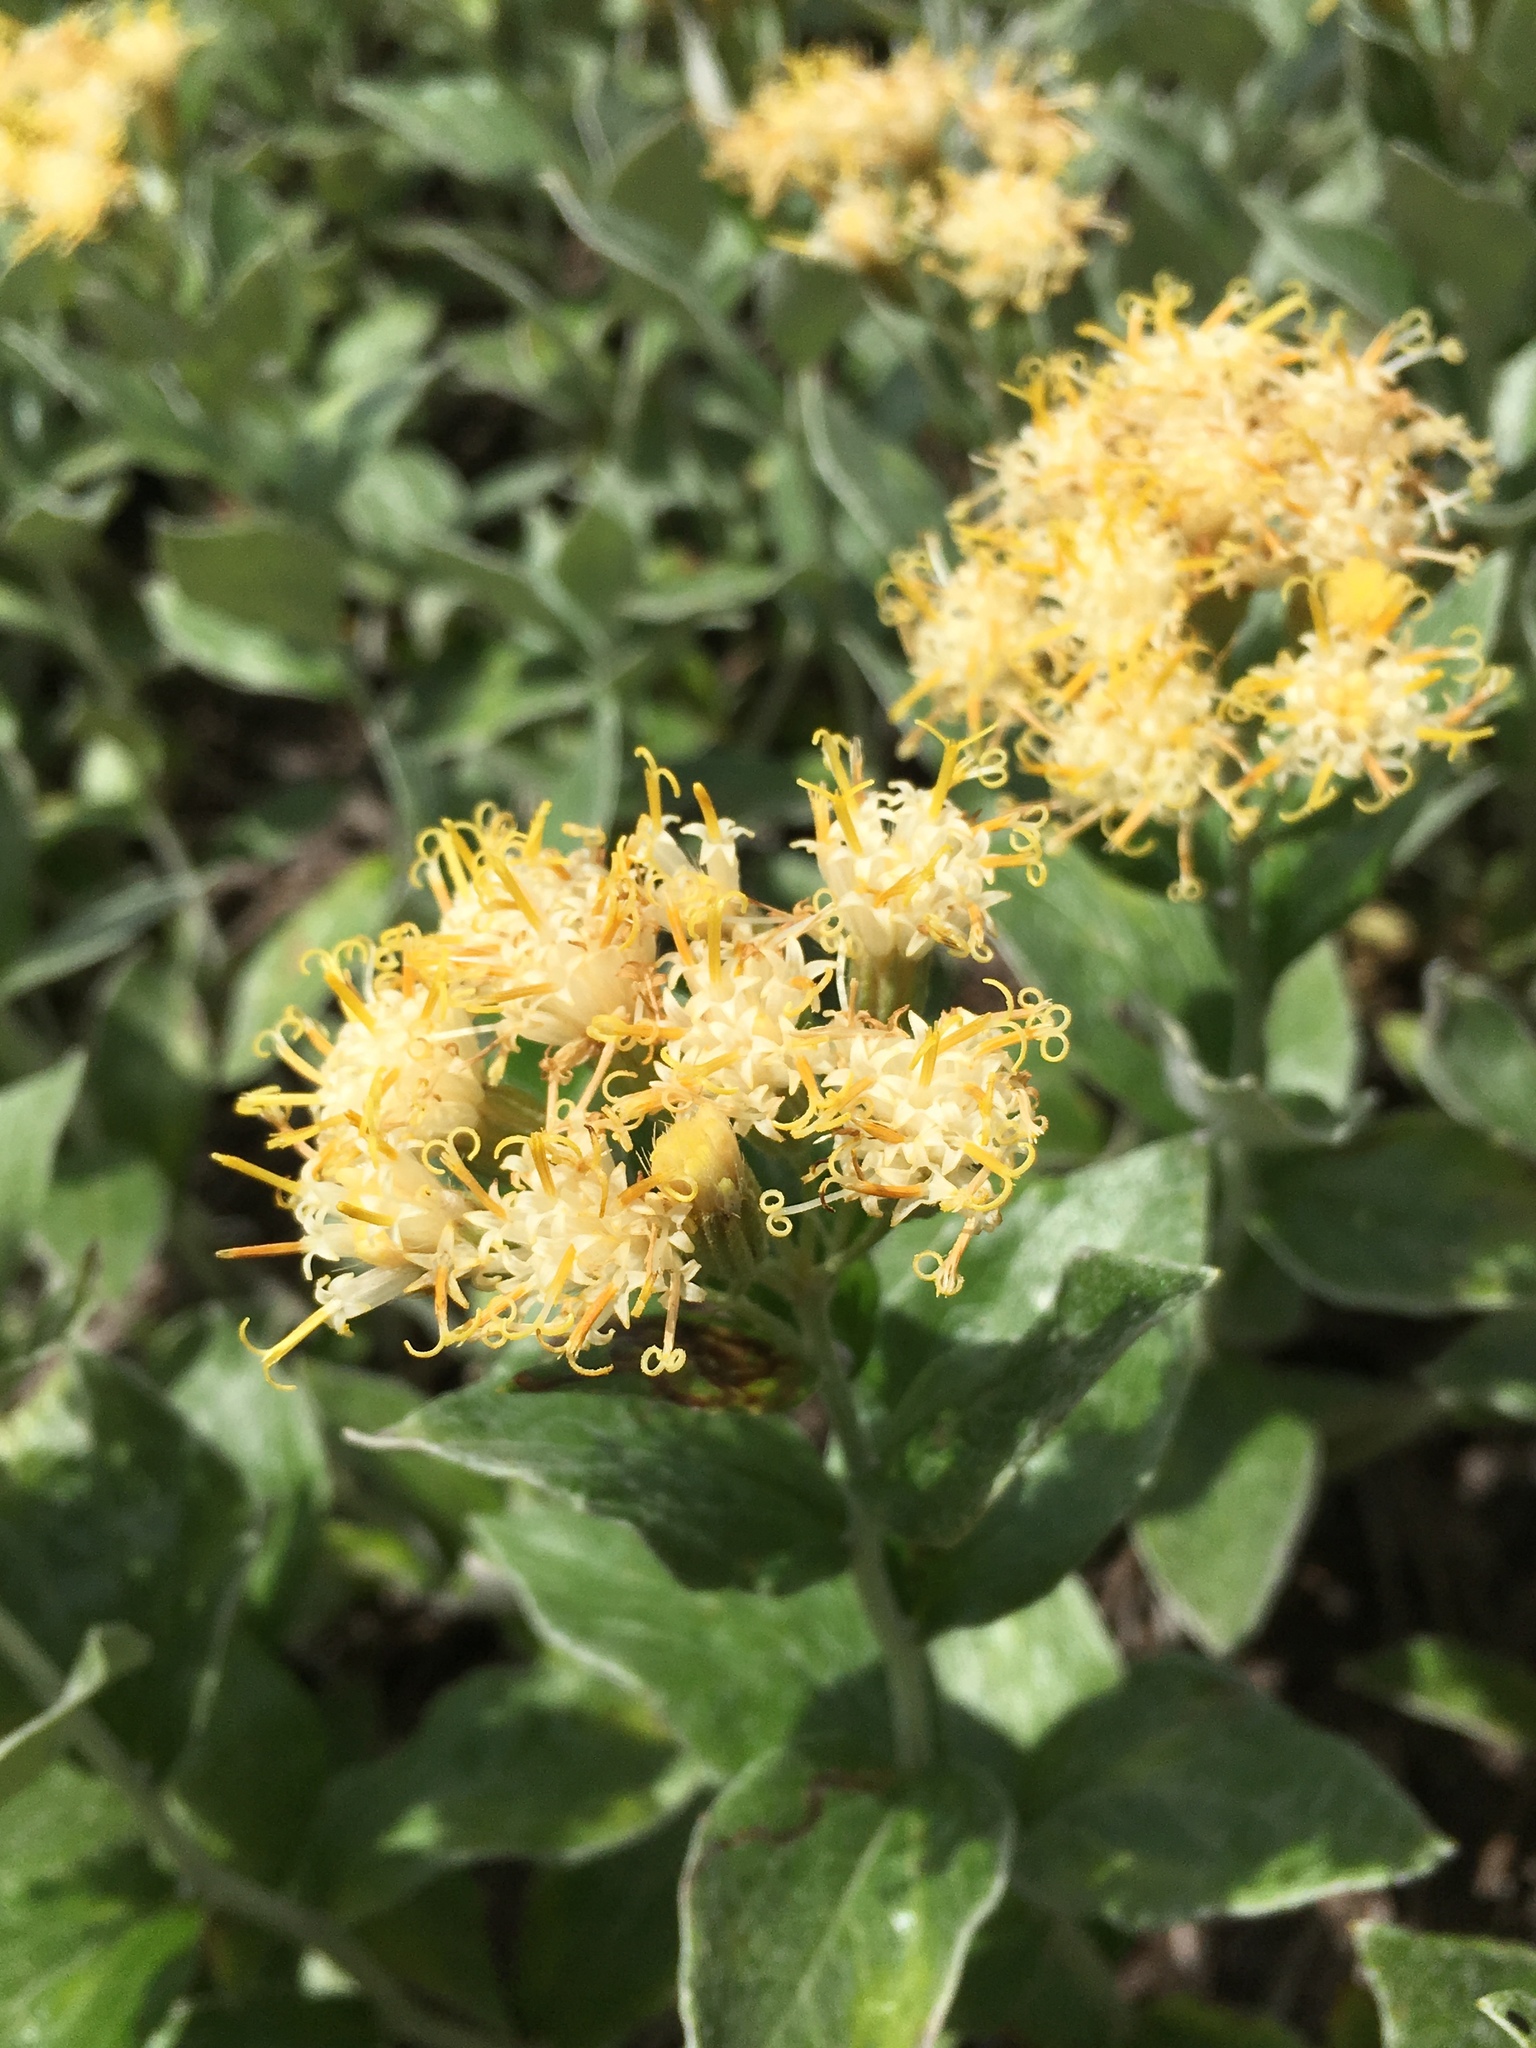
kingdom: Plantae
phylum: Tracheophyta
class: Magnoliopsida
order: Asterales
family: Asteraceae
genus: Luina
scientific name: Luina hypoleuca
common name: Little-leaved luina
